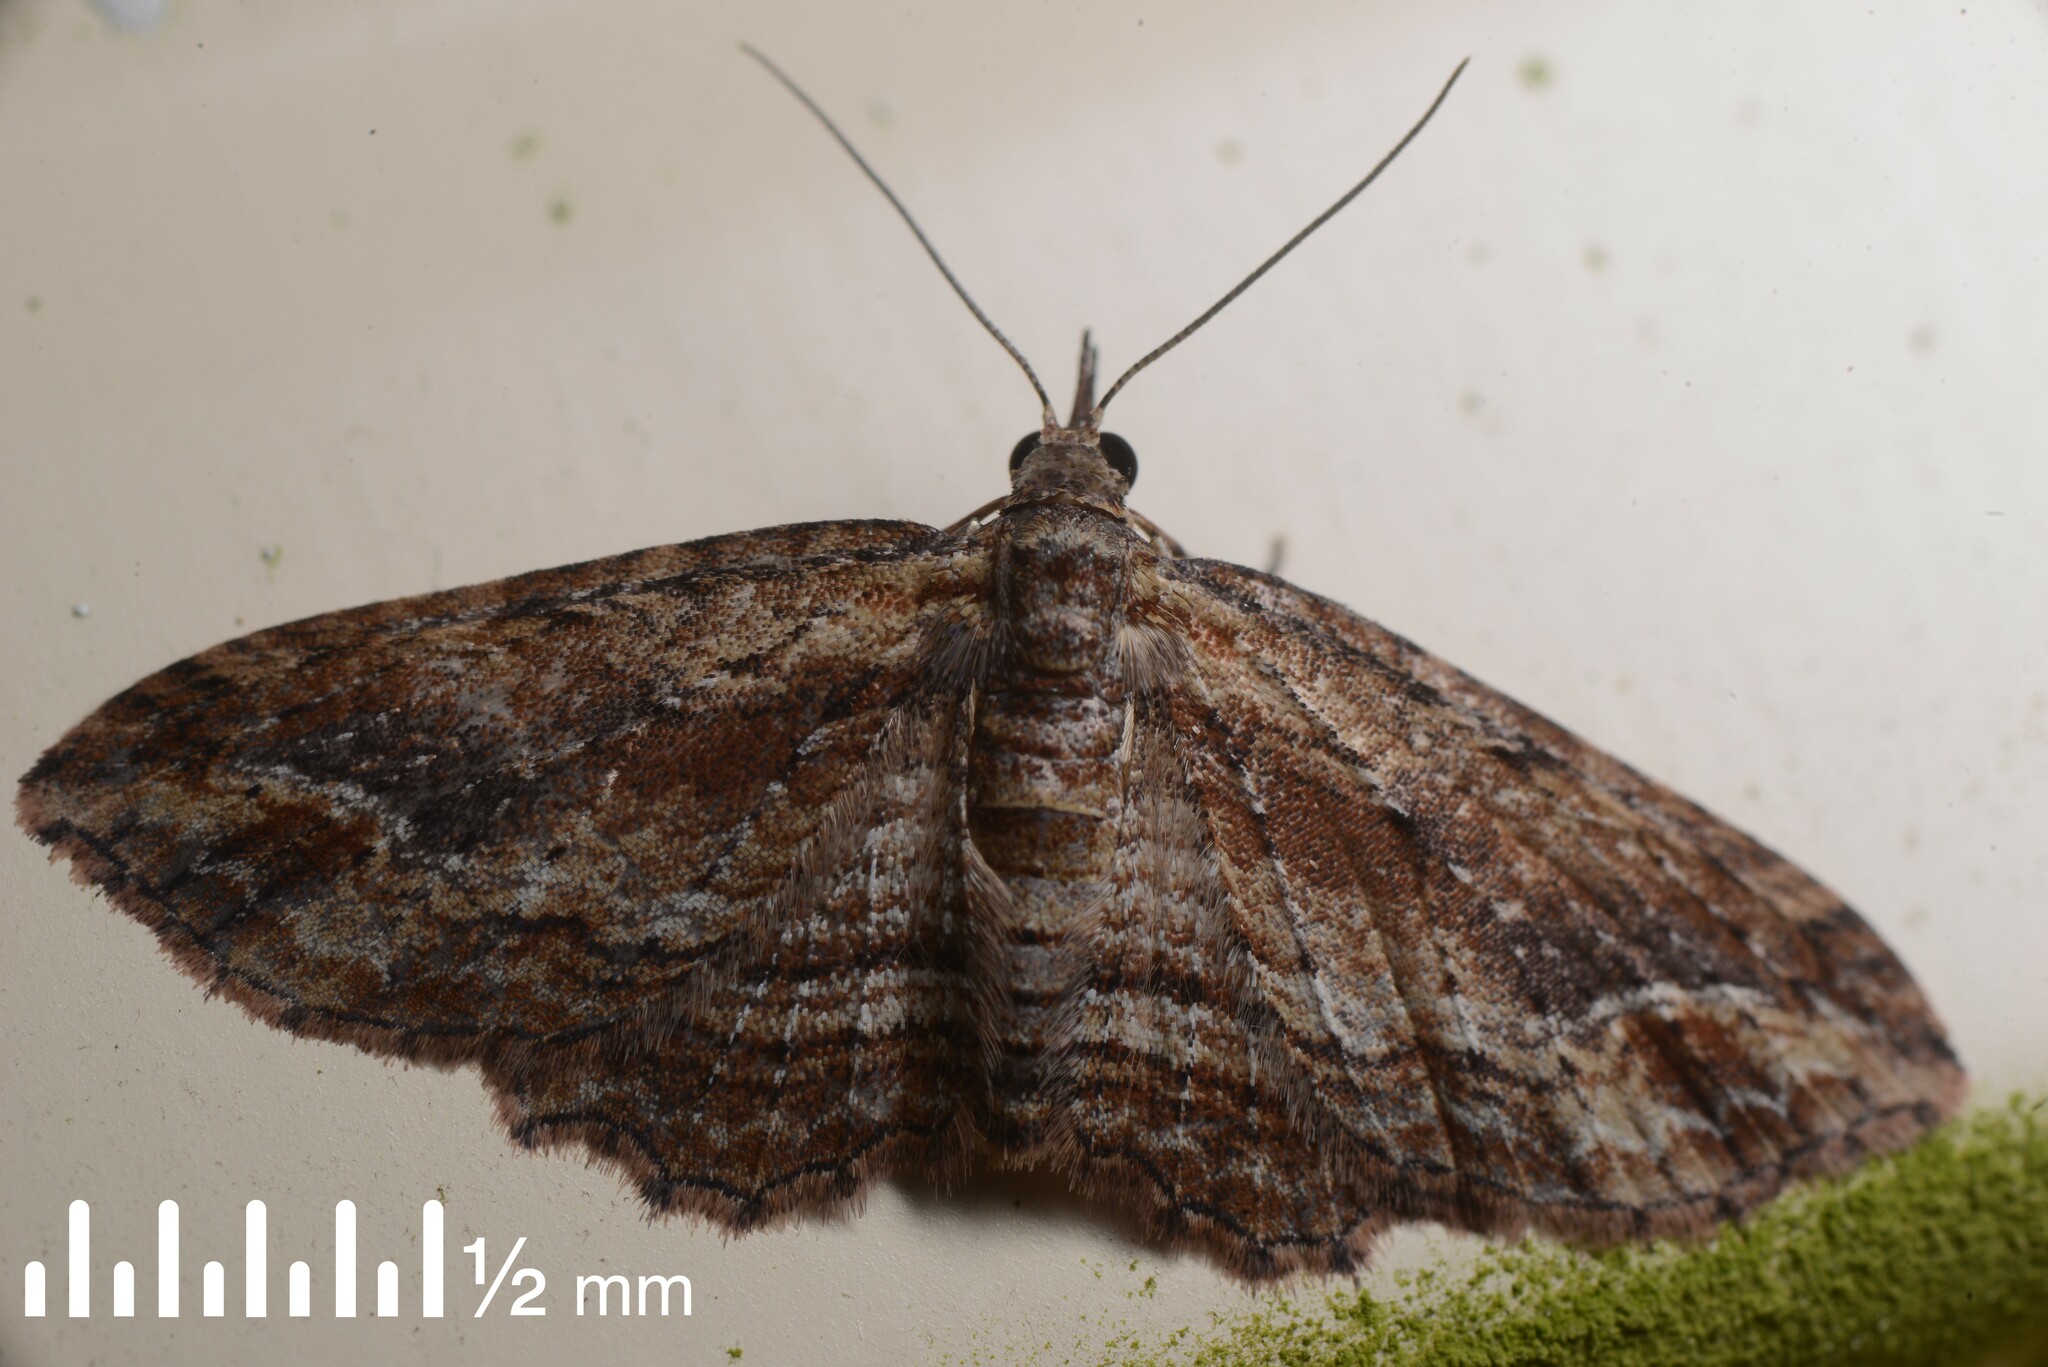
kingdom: Animalia
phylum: Arthropoda
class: Insecta
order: Lepidoptera
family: Geometridae
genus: Chloroclystis
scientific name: Chloroclystis filata
